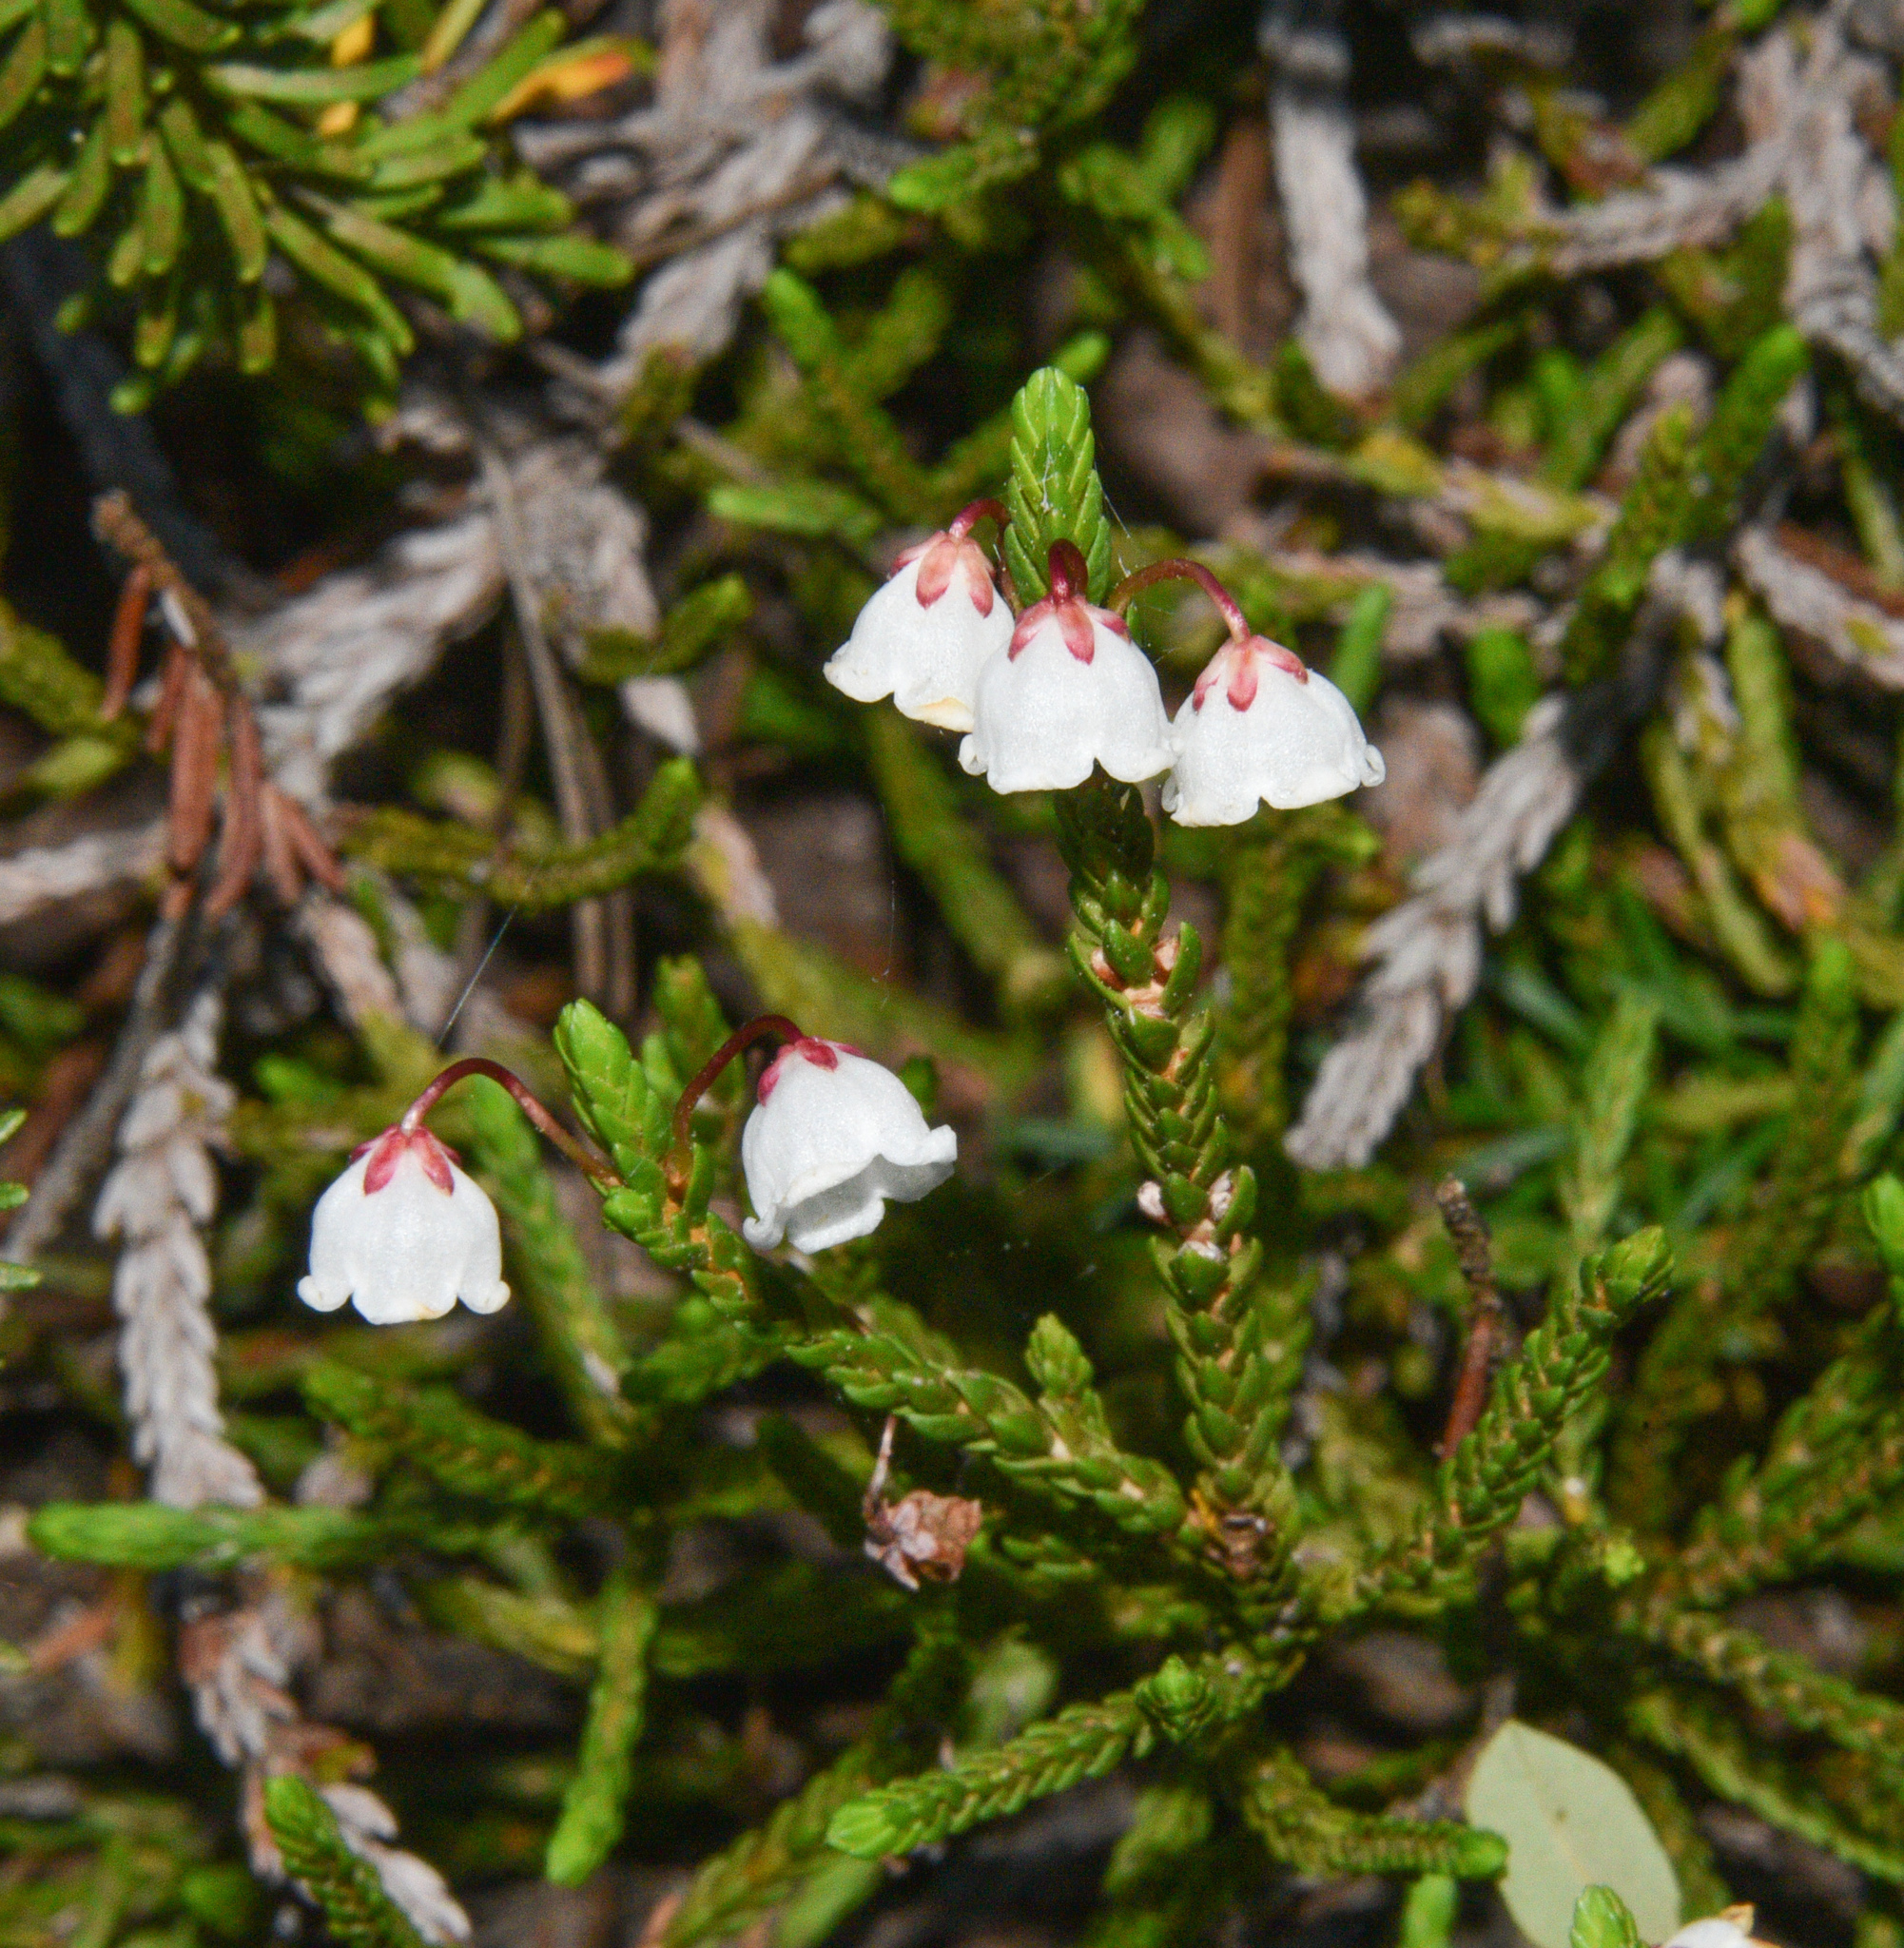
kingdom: Plantae
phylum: Tracheophyta
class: Magnoliopsida
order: Ericales
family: Ericaceae
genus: Cassiope
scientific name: Cassiope mertensiana
